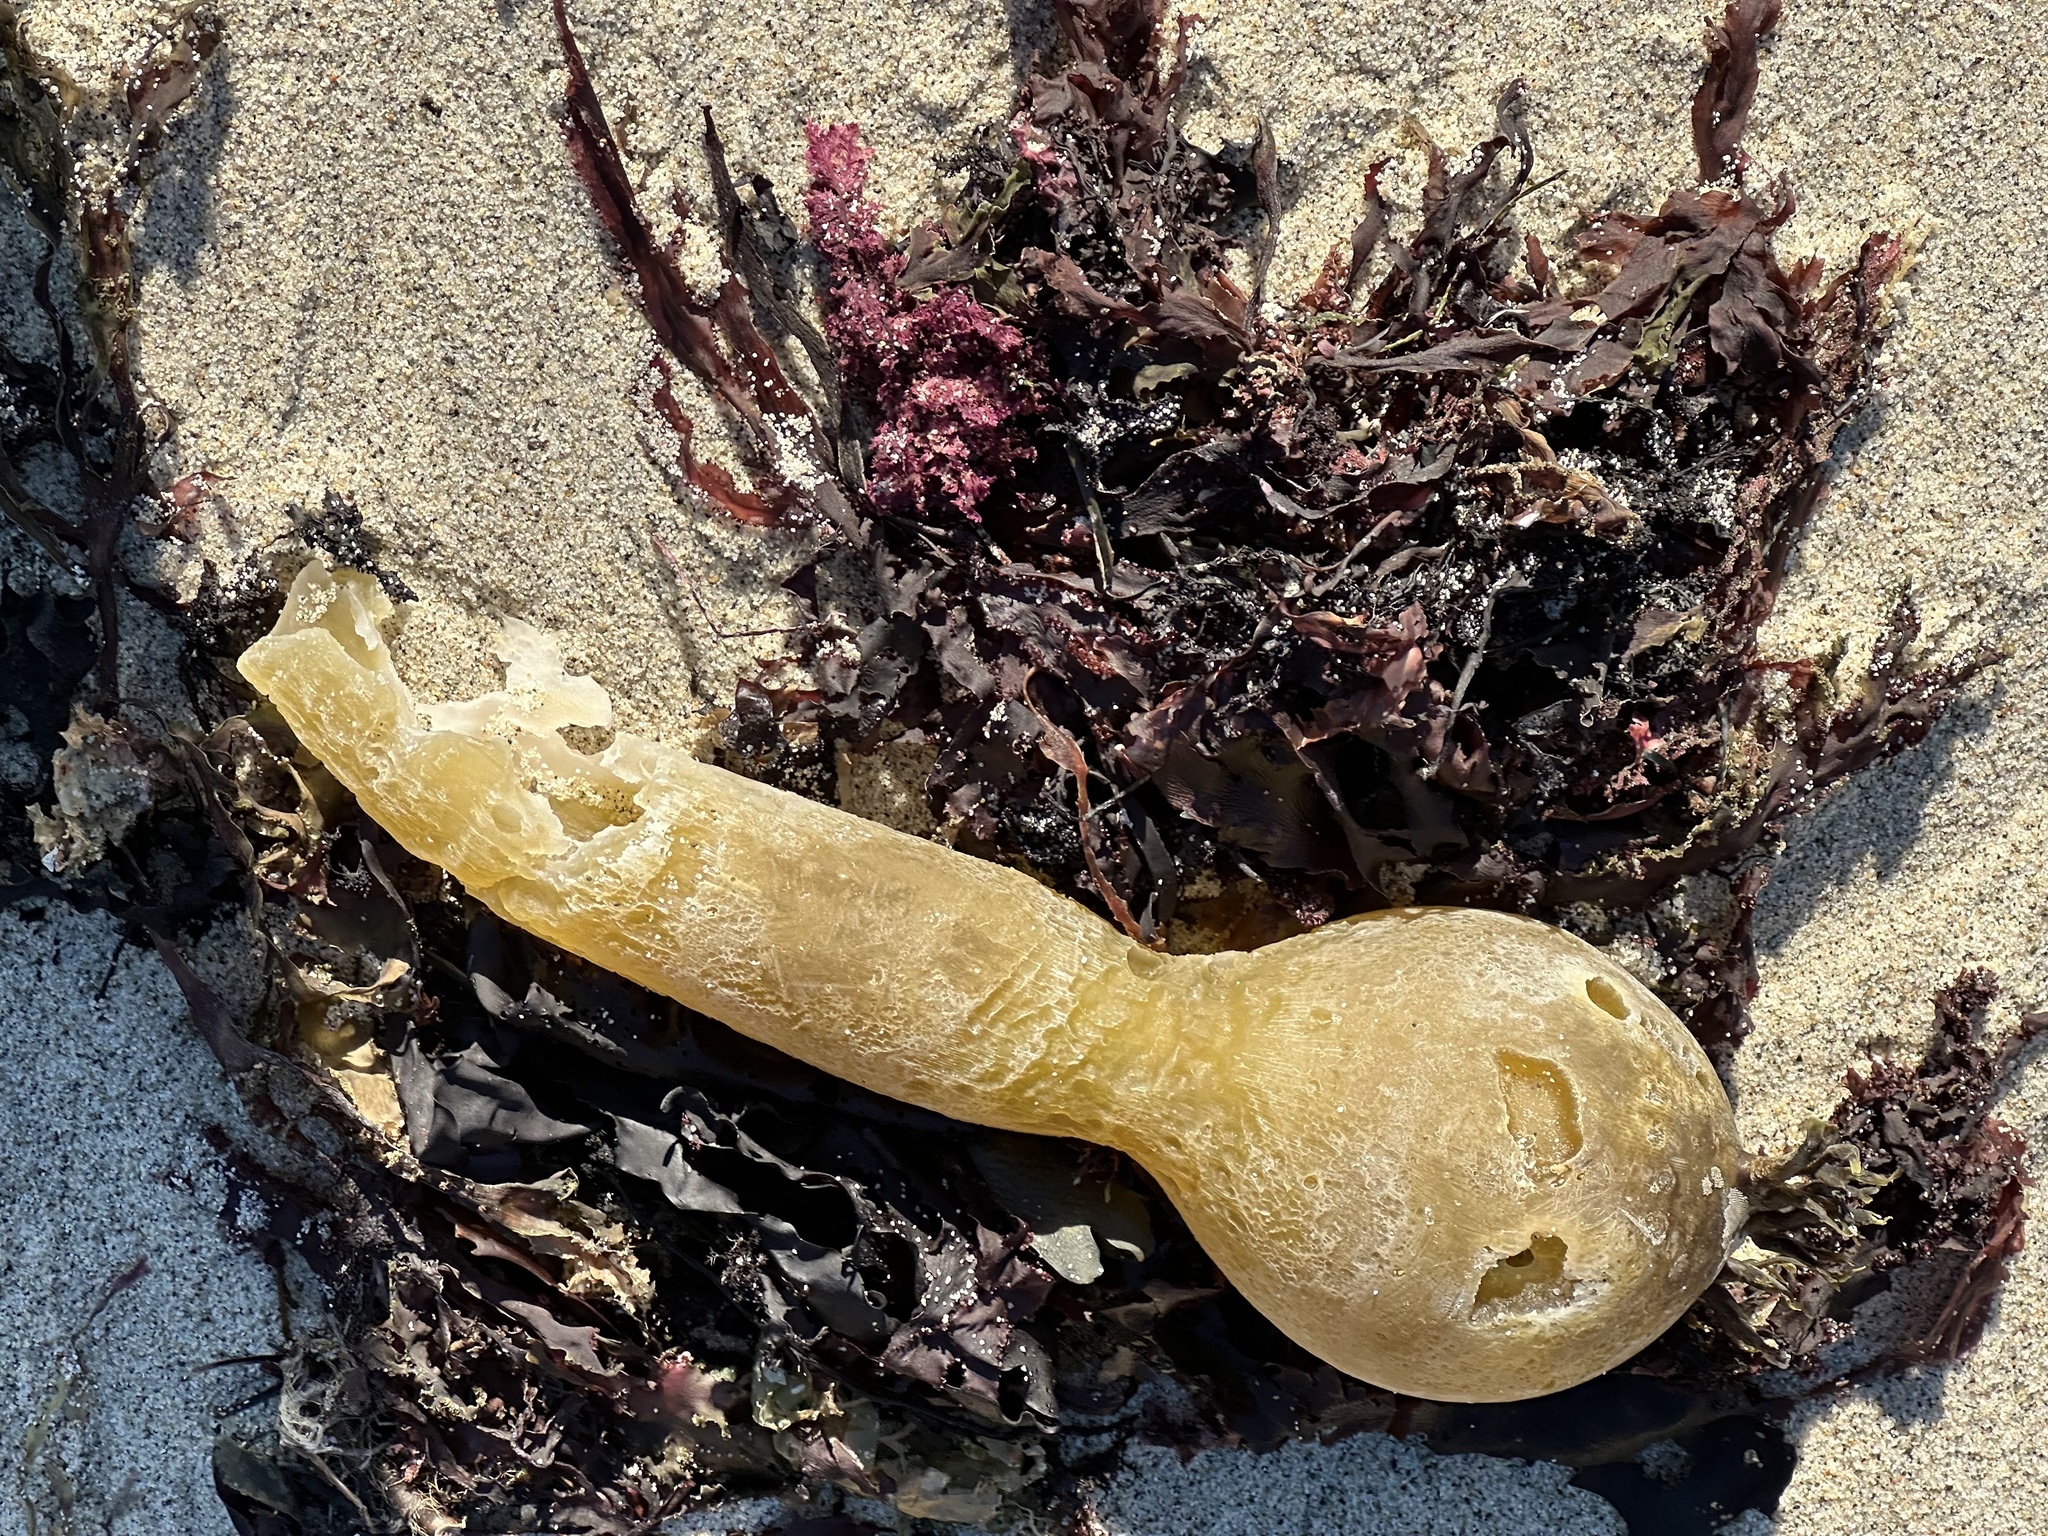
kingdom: Chromista
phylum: Ochrophyta
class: Phaeophyceae
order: Laminariales
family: Laminariaceae
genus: Nereocystis
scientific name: Nereocystis luetkeana
